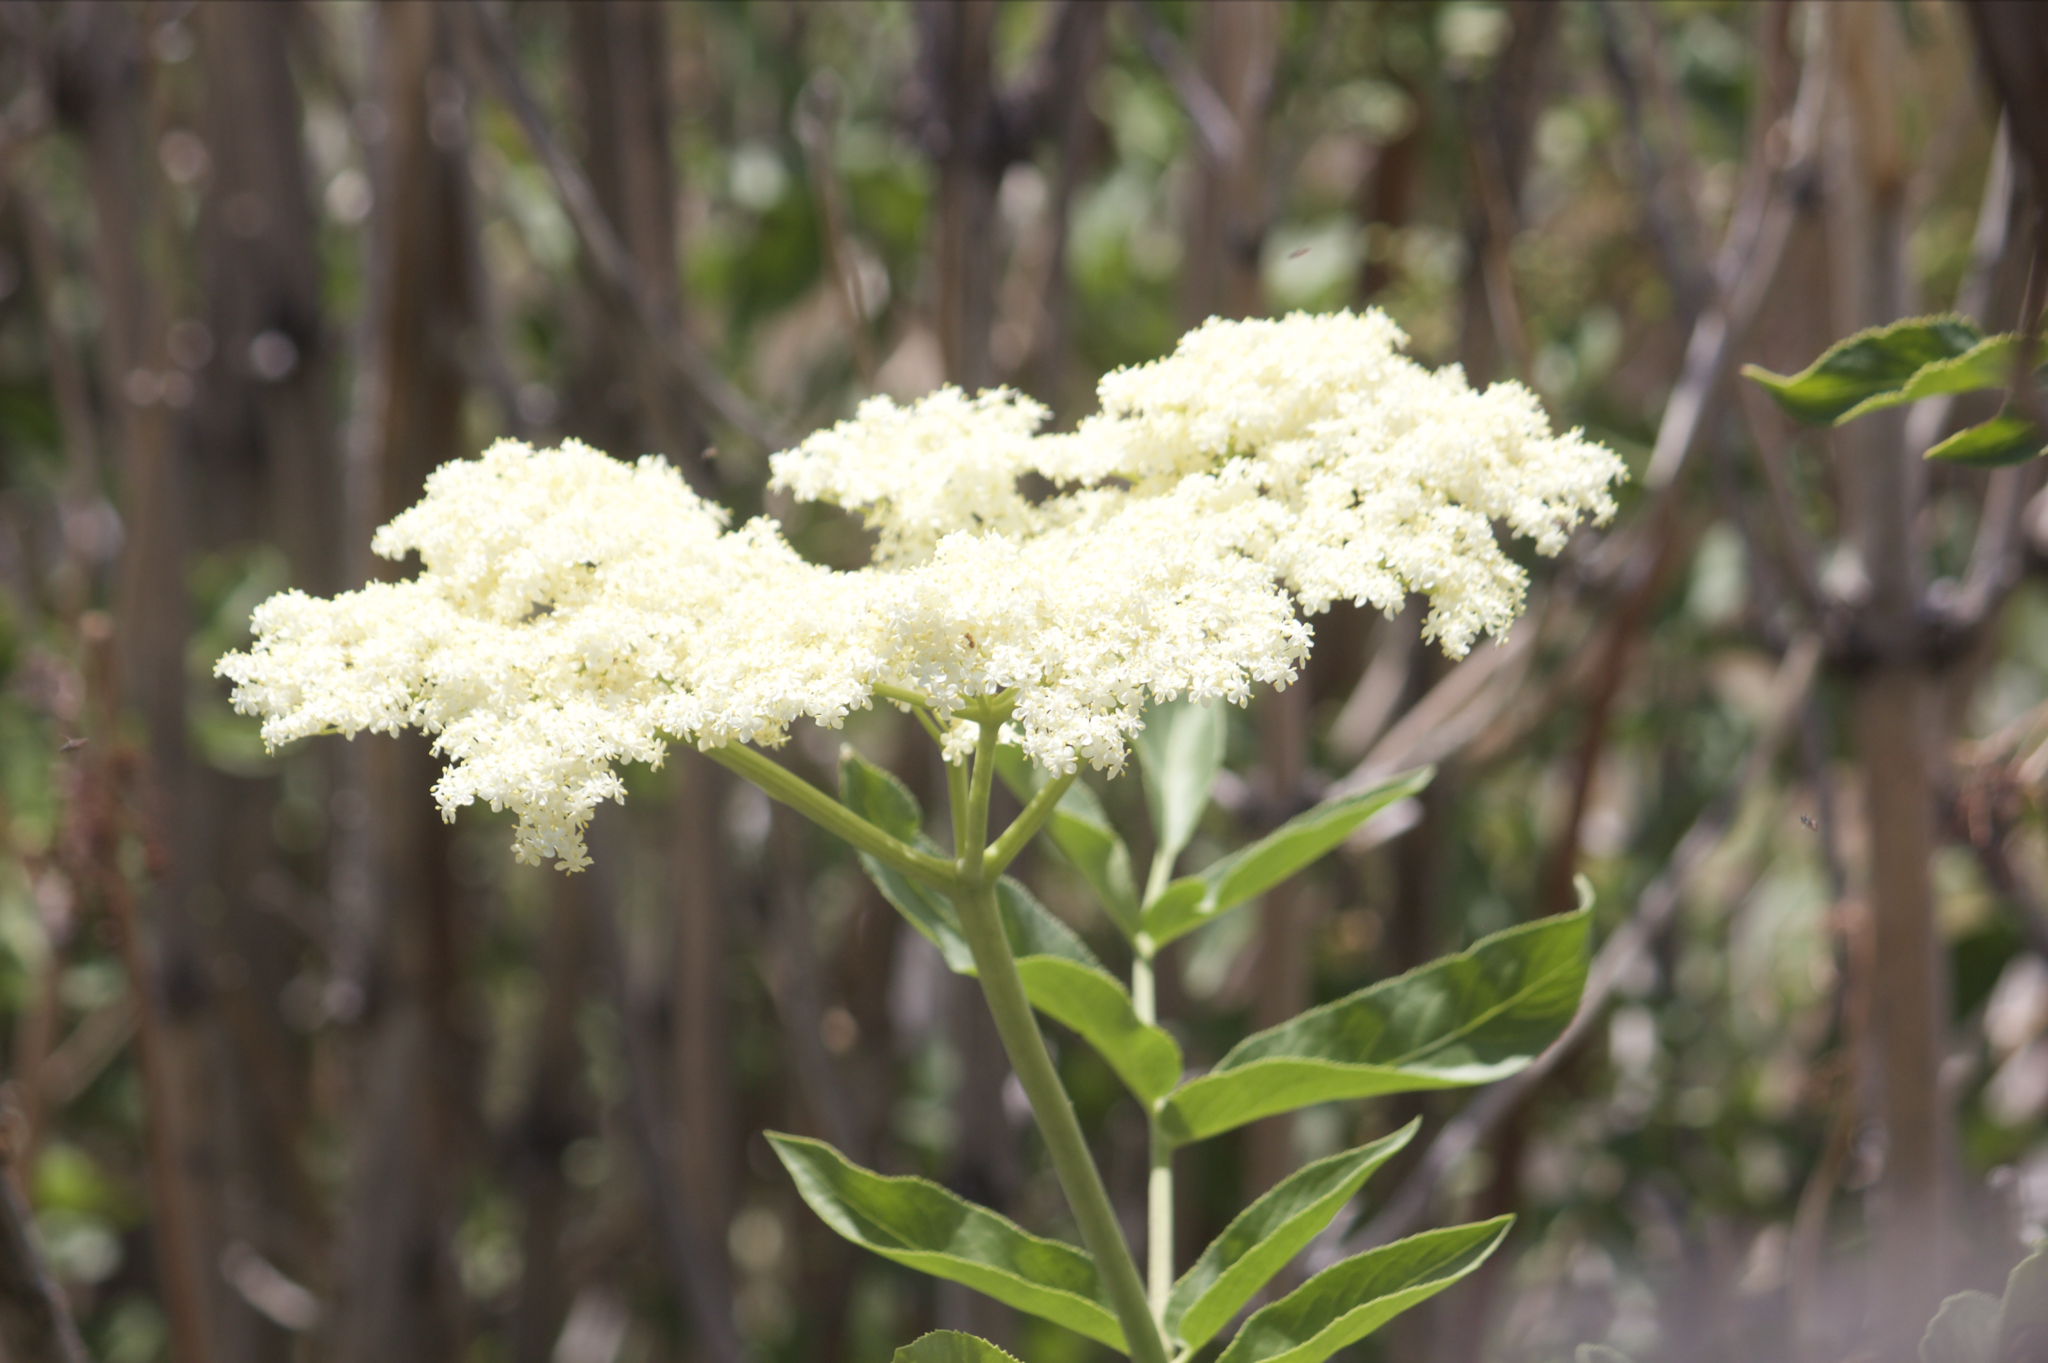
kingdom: Plantae
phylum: Tracheophyta
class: Magnoliopsida
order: Dipsacales
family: Viburnaceae
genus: Sambucus
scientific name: Sambucus cerulea
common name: Blue elder
